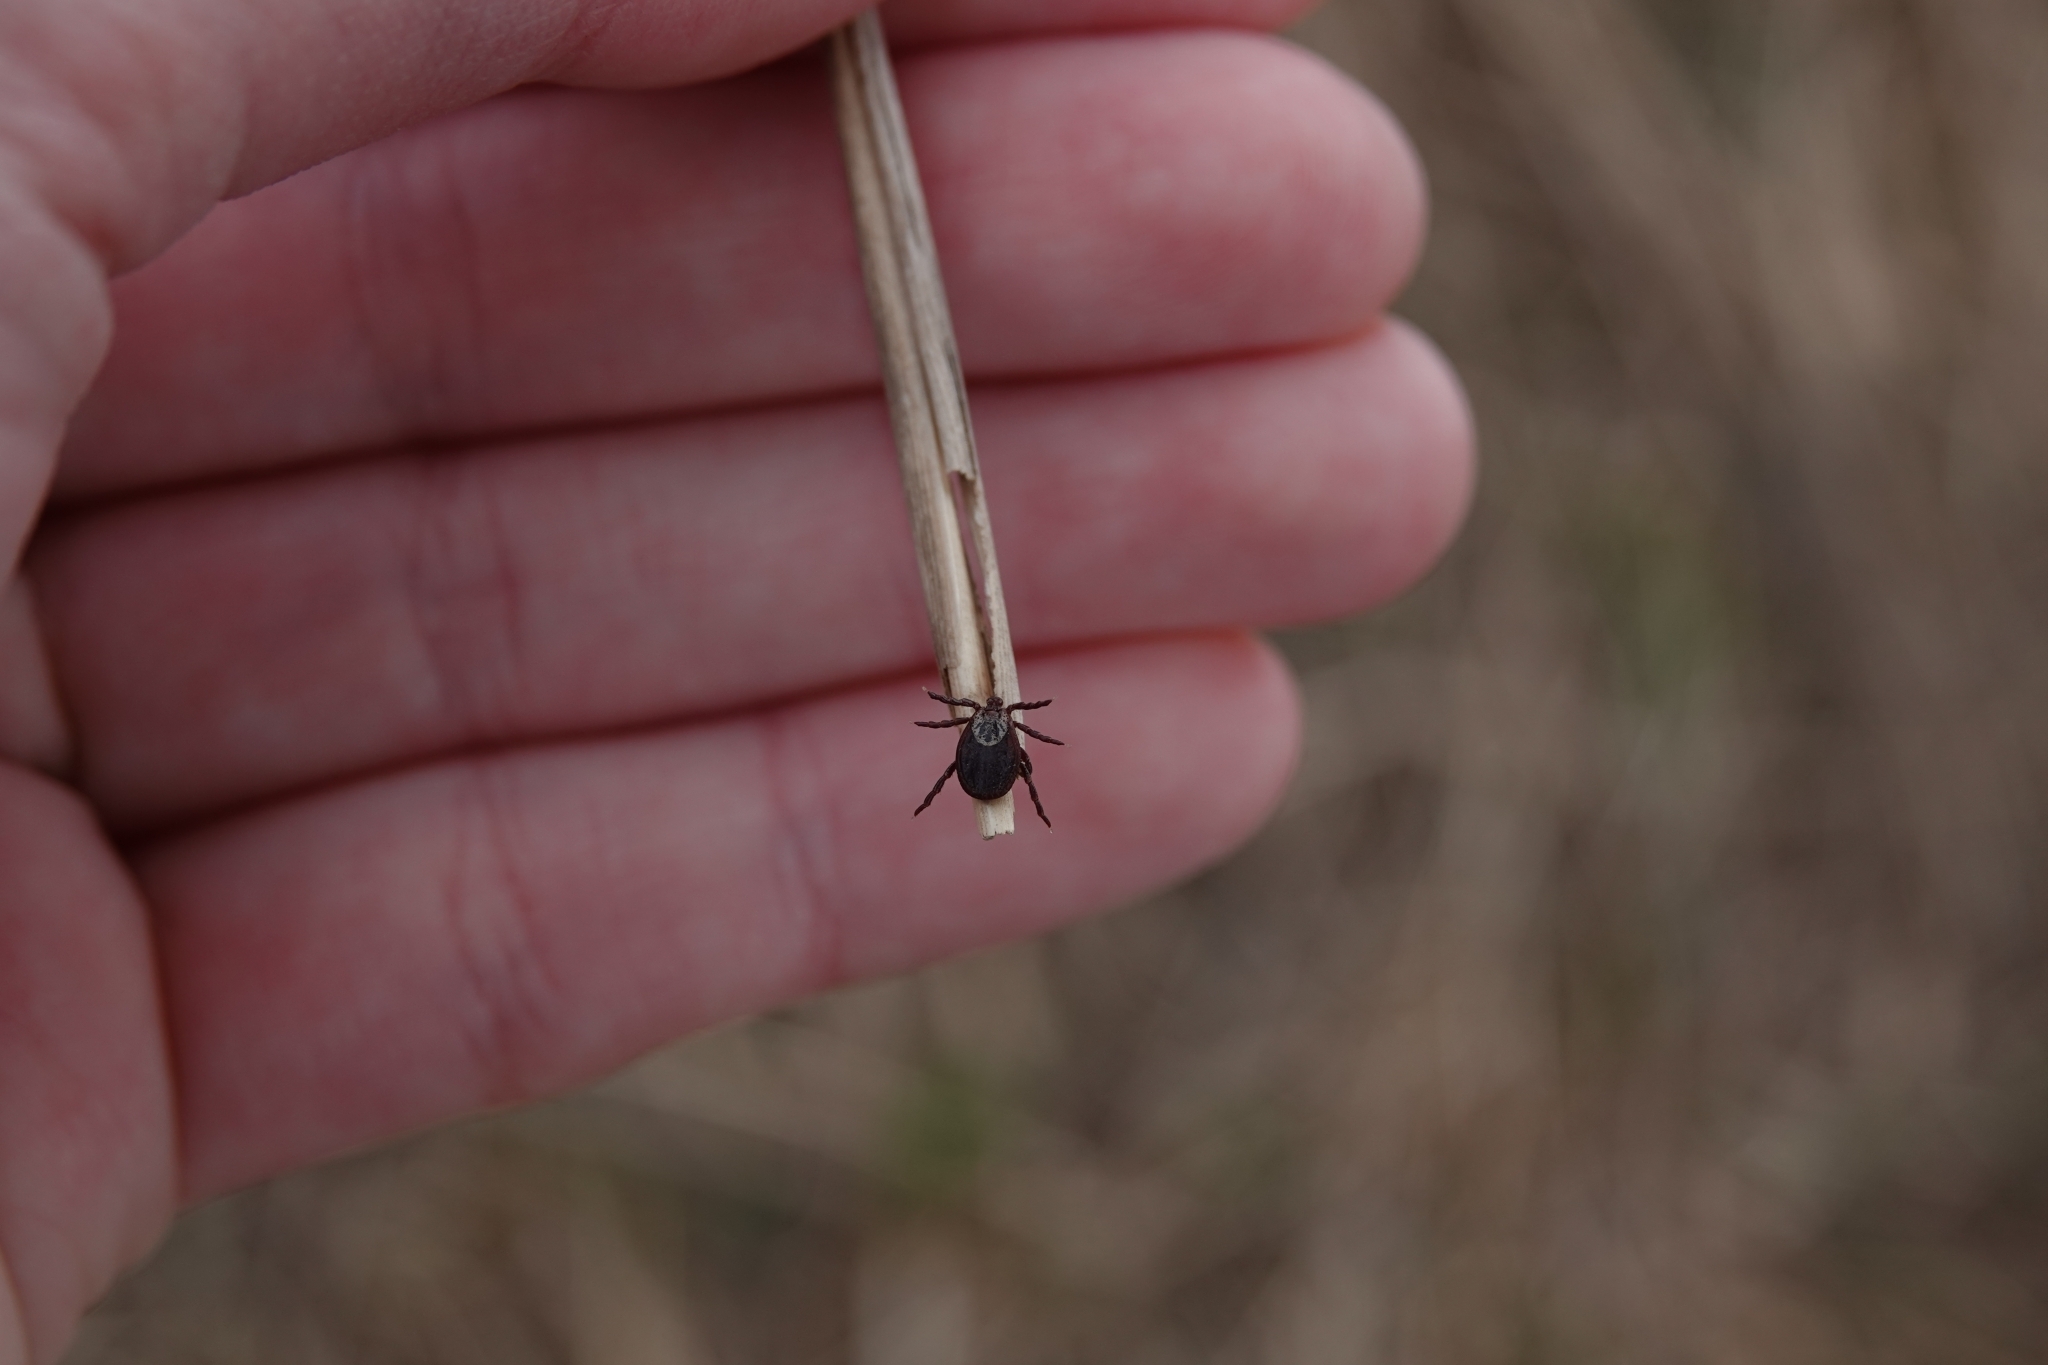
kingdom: Animalia
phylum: Arthropoda
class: Arachnida
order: Ixodida
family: Ixodidae
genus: Dermacentor
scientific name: Dermacentor reticulatus
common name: Ornate cow tick
